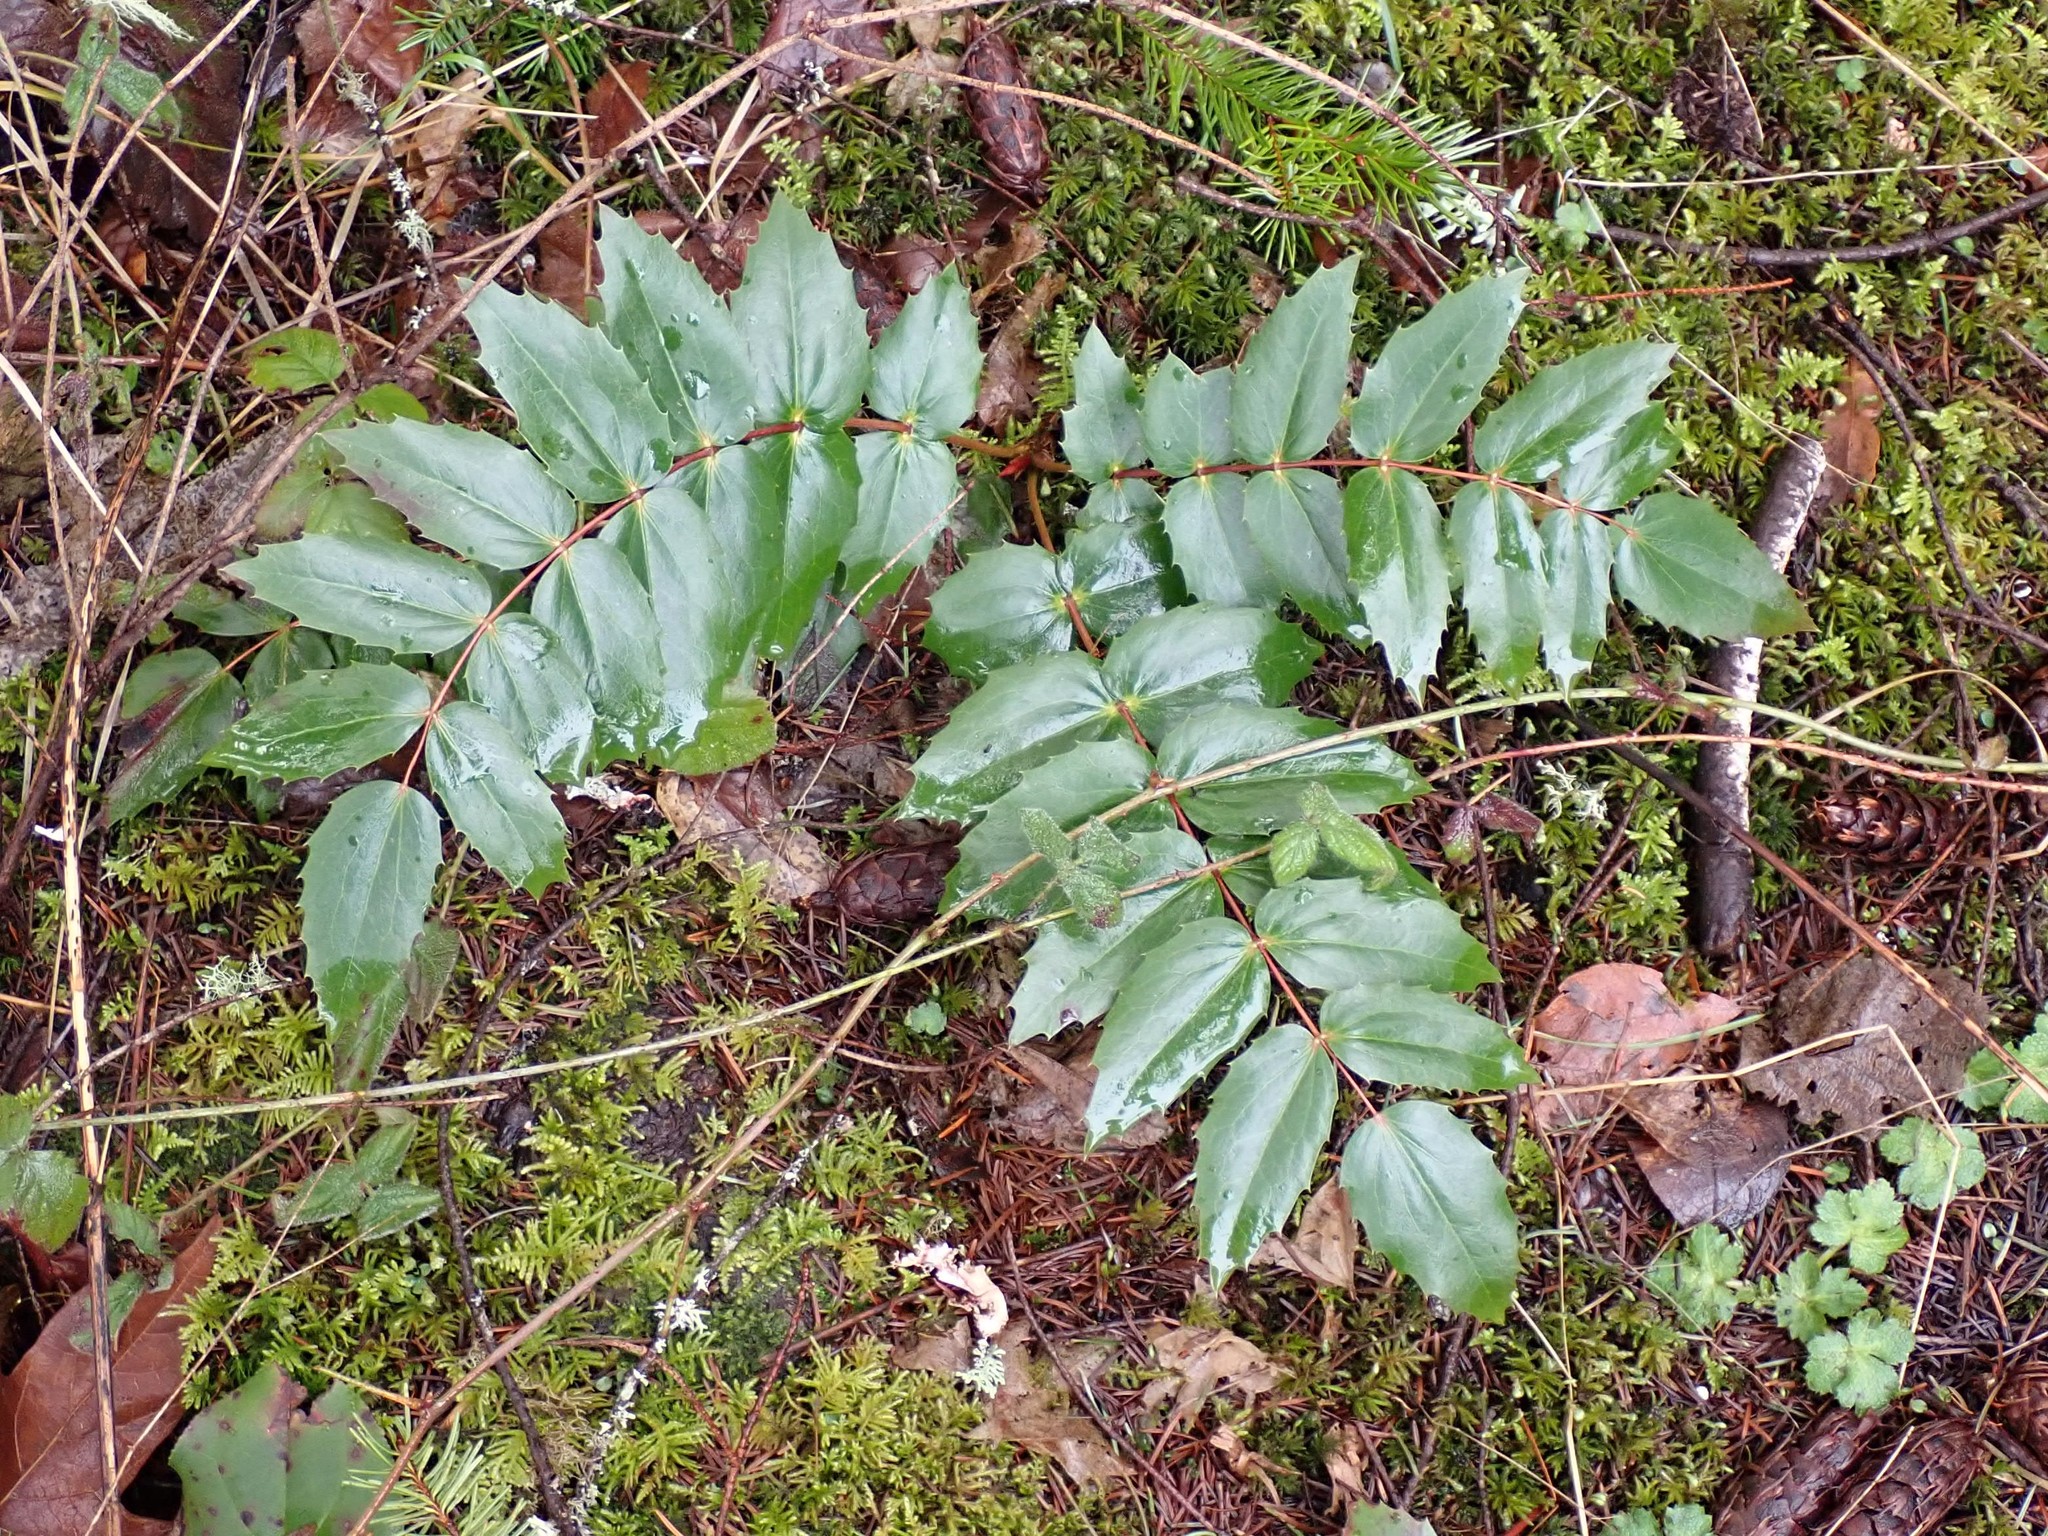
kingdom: Plantae
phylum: Tracheophyta
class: Magnoliopsida
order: Ranunculales
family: Berberidaceae
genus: Mahonia
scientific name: Mahonia nervosa
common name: Cascade oregon-grape
